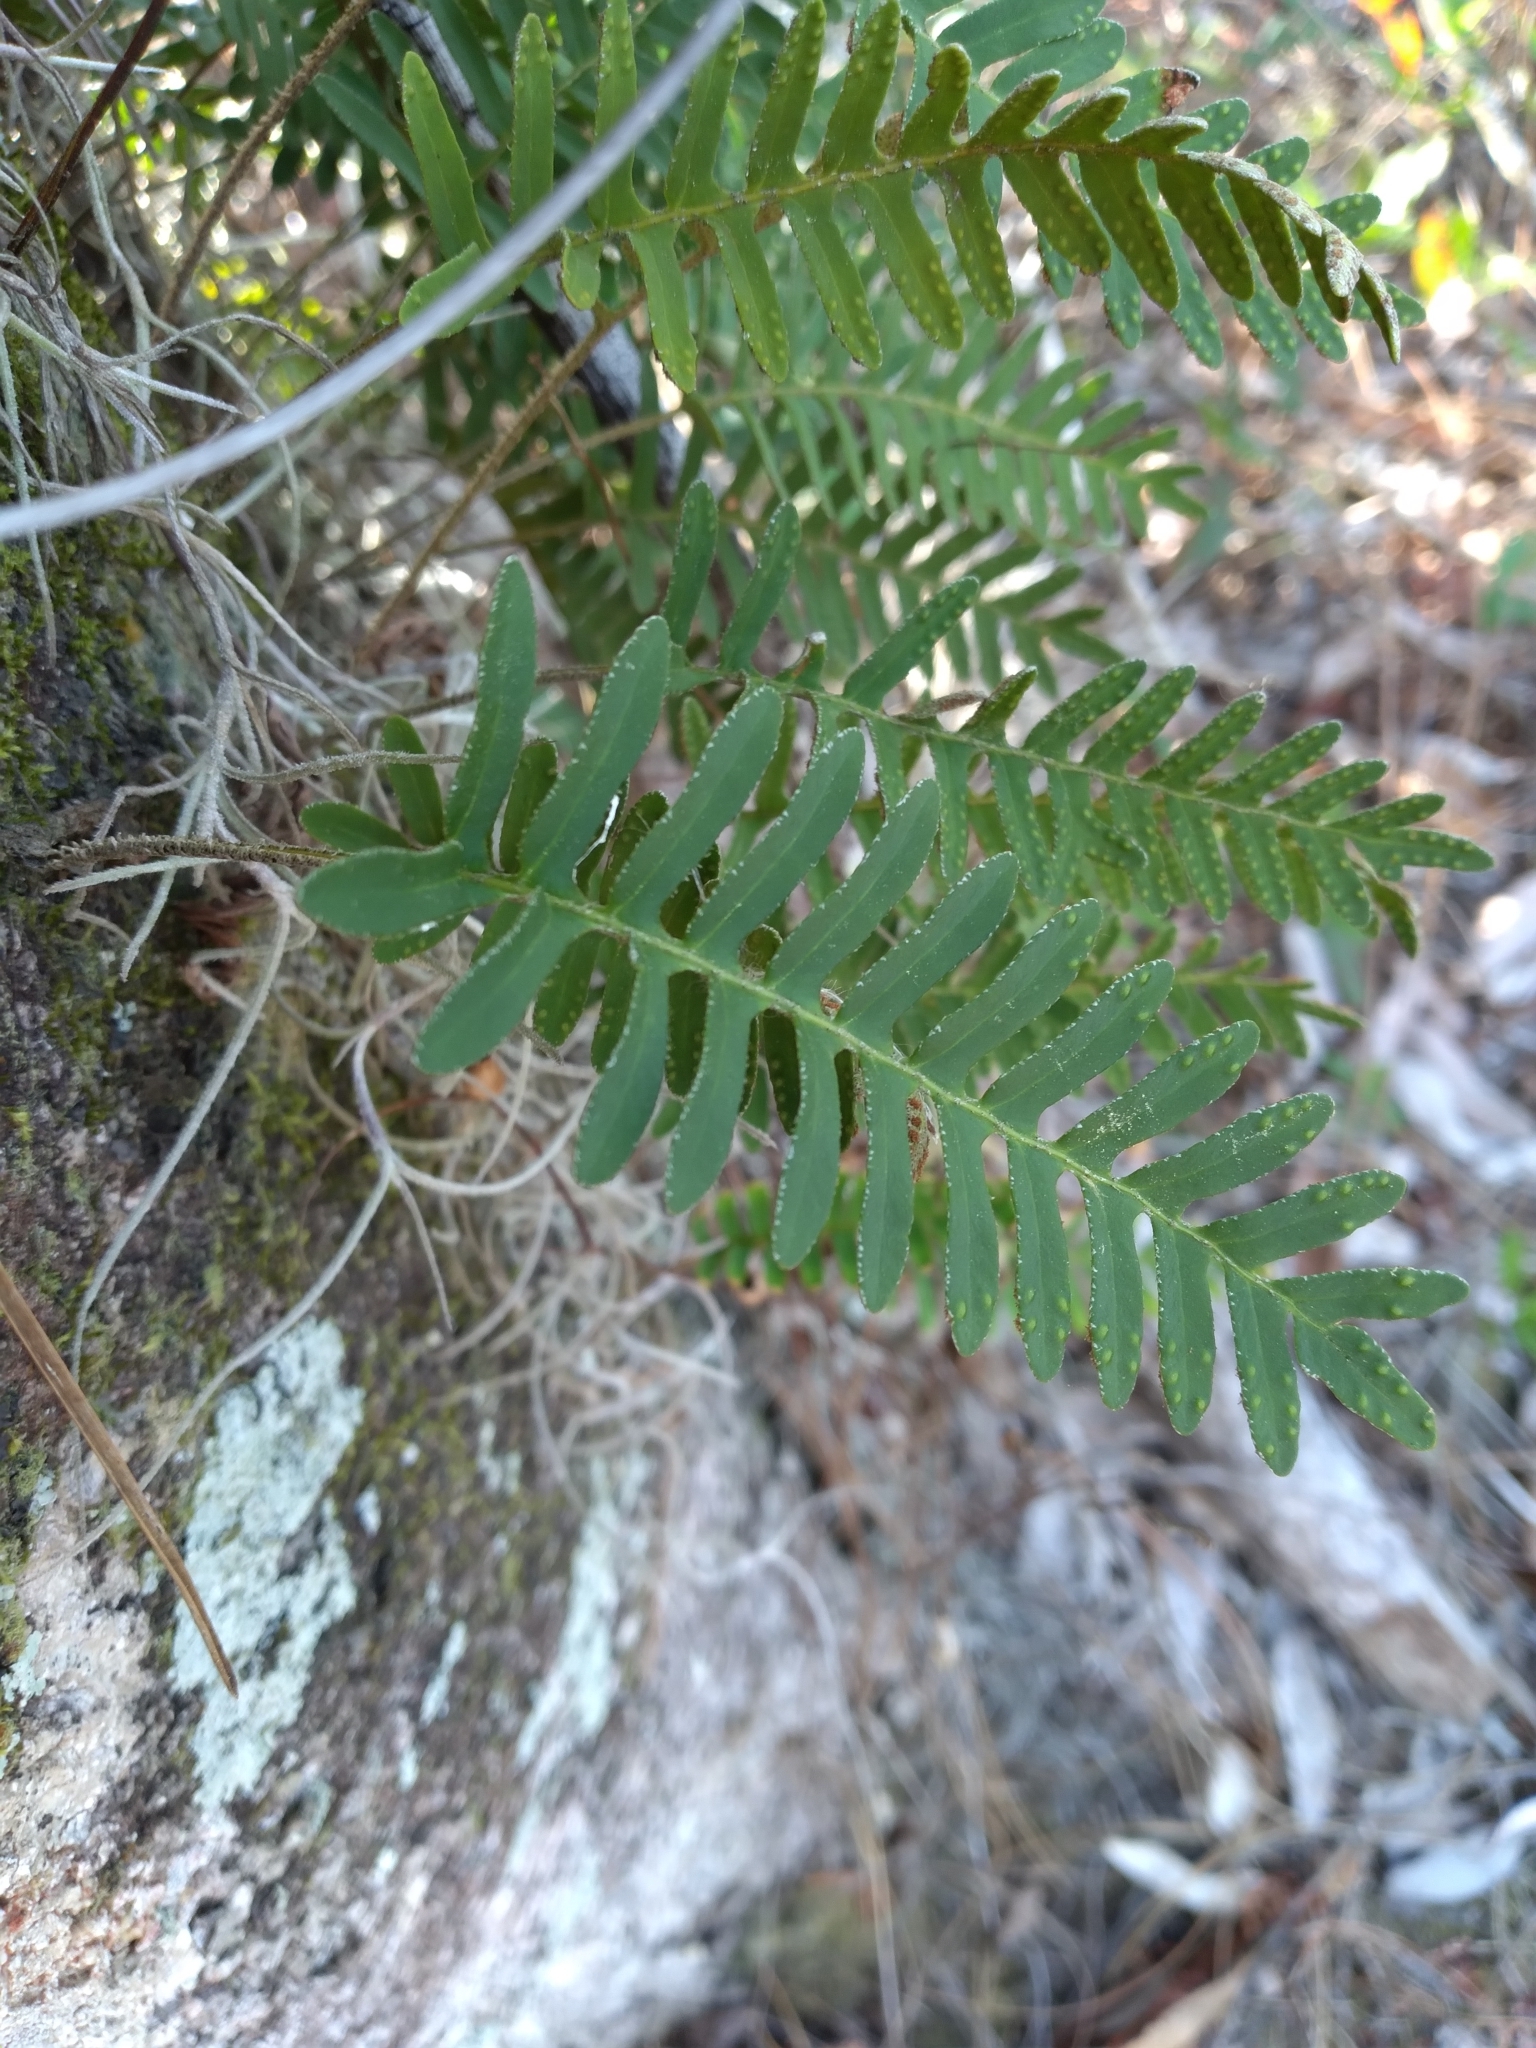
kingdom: Plantae
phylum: Tracheophyta
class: Polypodiopsida
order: Polypodiales
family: Polypodiaceae
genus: Pleopeltis
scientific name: Pleopeltis michauxiana
